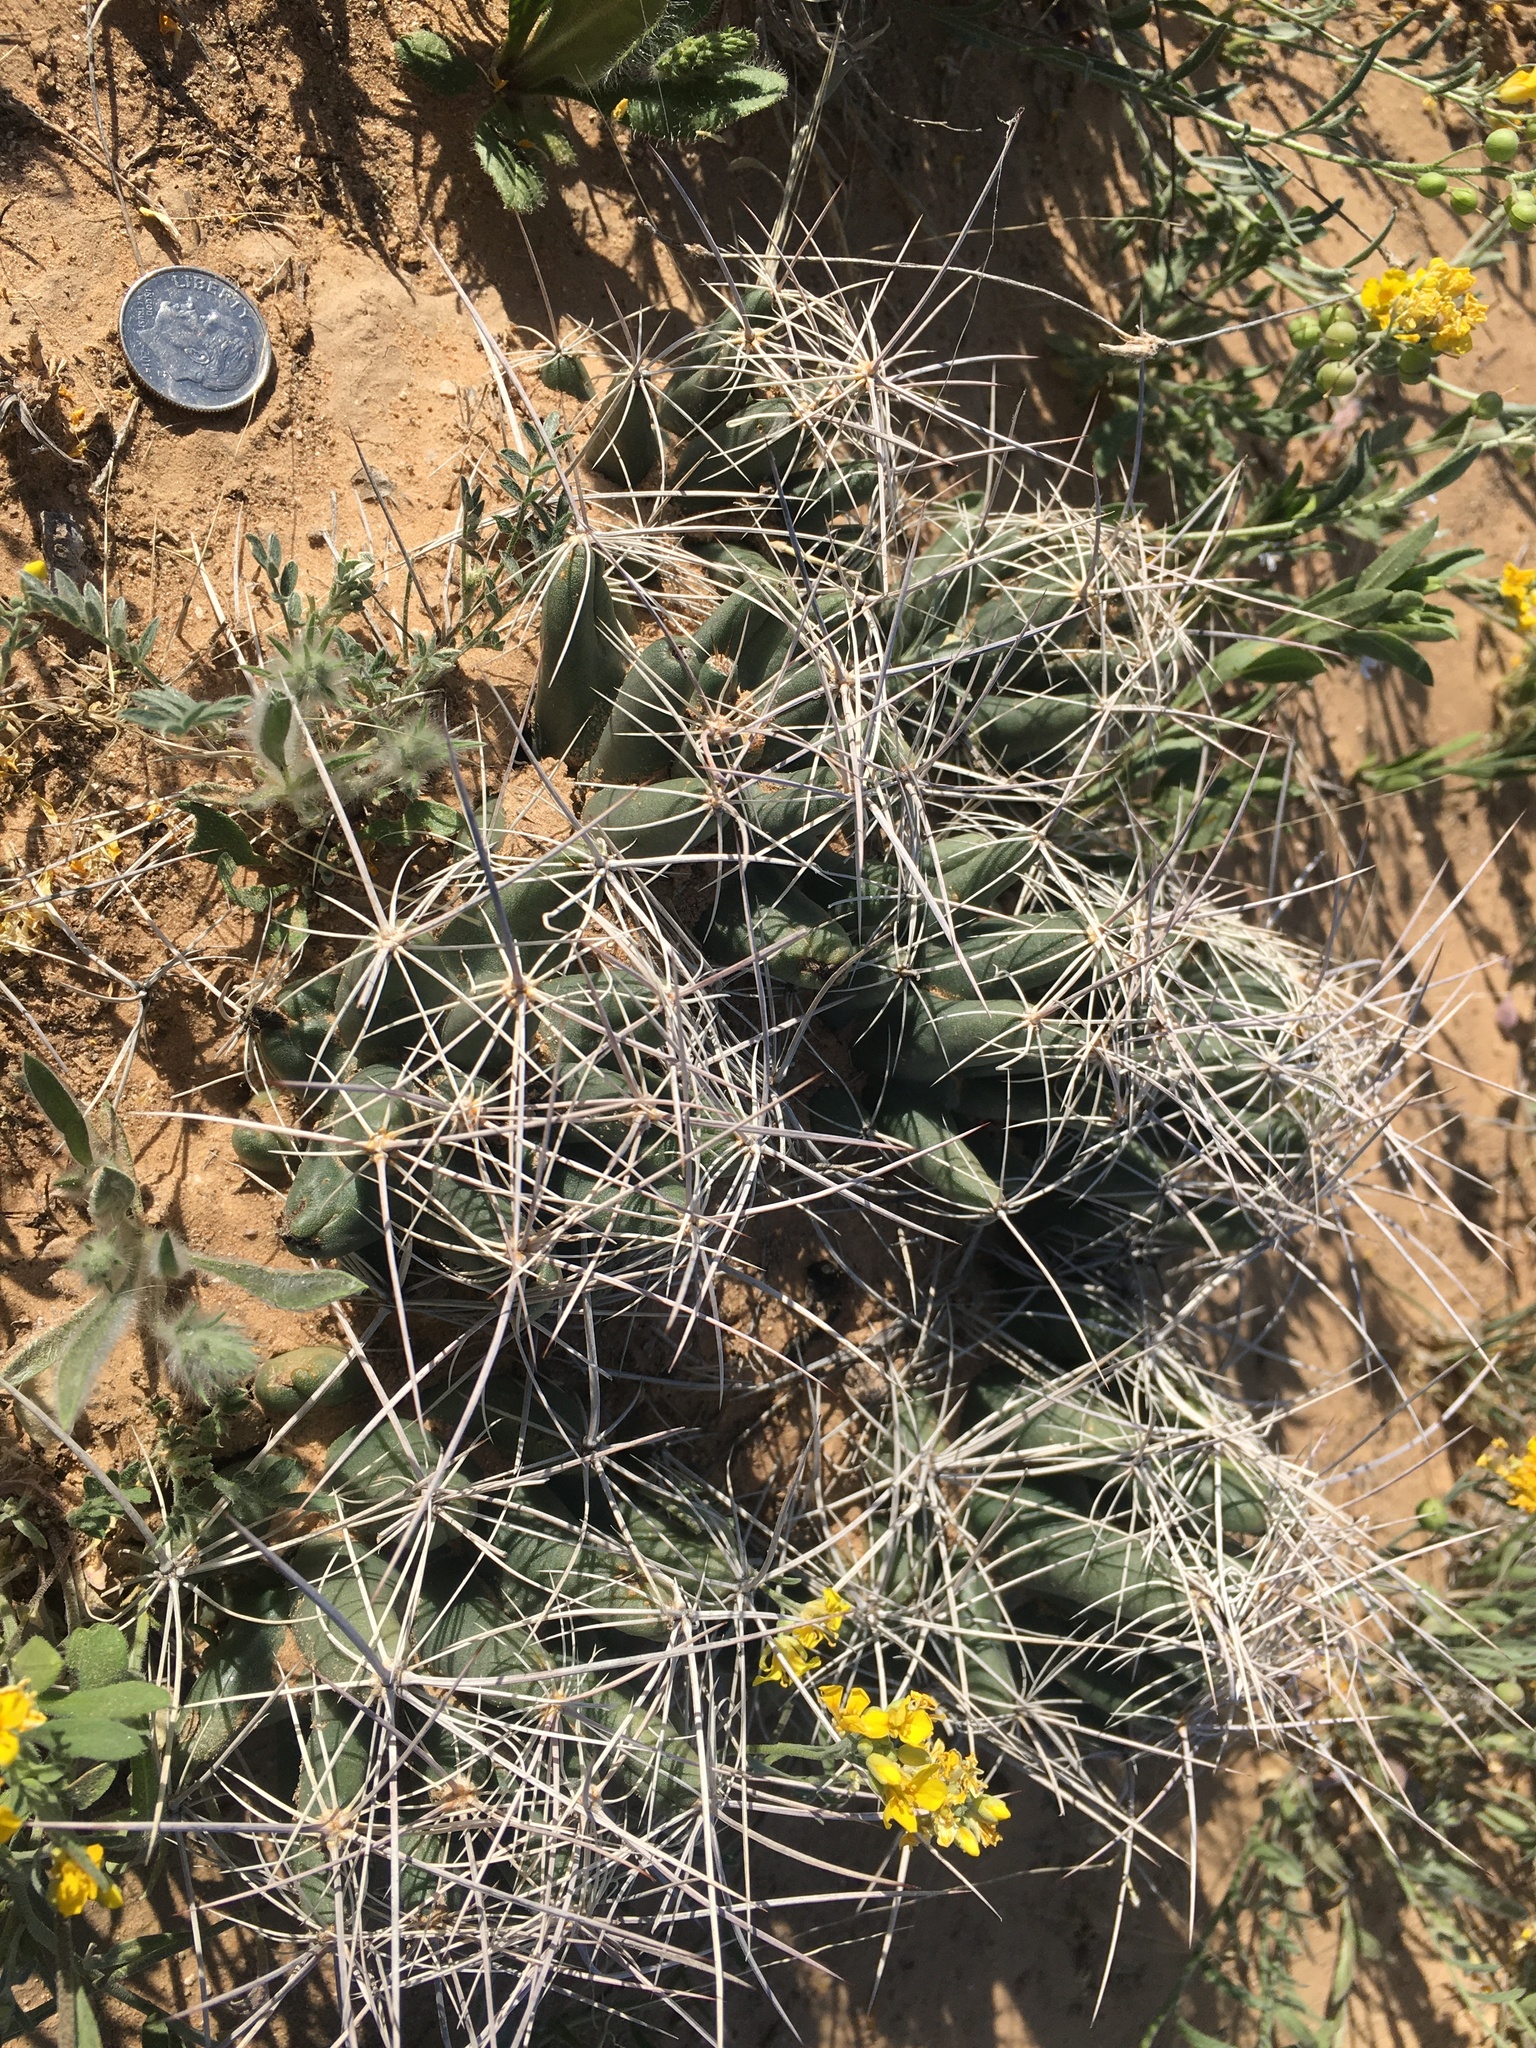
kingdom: Plantae
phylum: Tracheophyta
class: Magnoliopsida
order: Caryophyllales
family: Cactaceae
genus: Coryphantha
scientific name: Coryphantha macromeris
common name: Nipple beehive cactus
